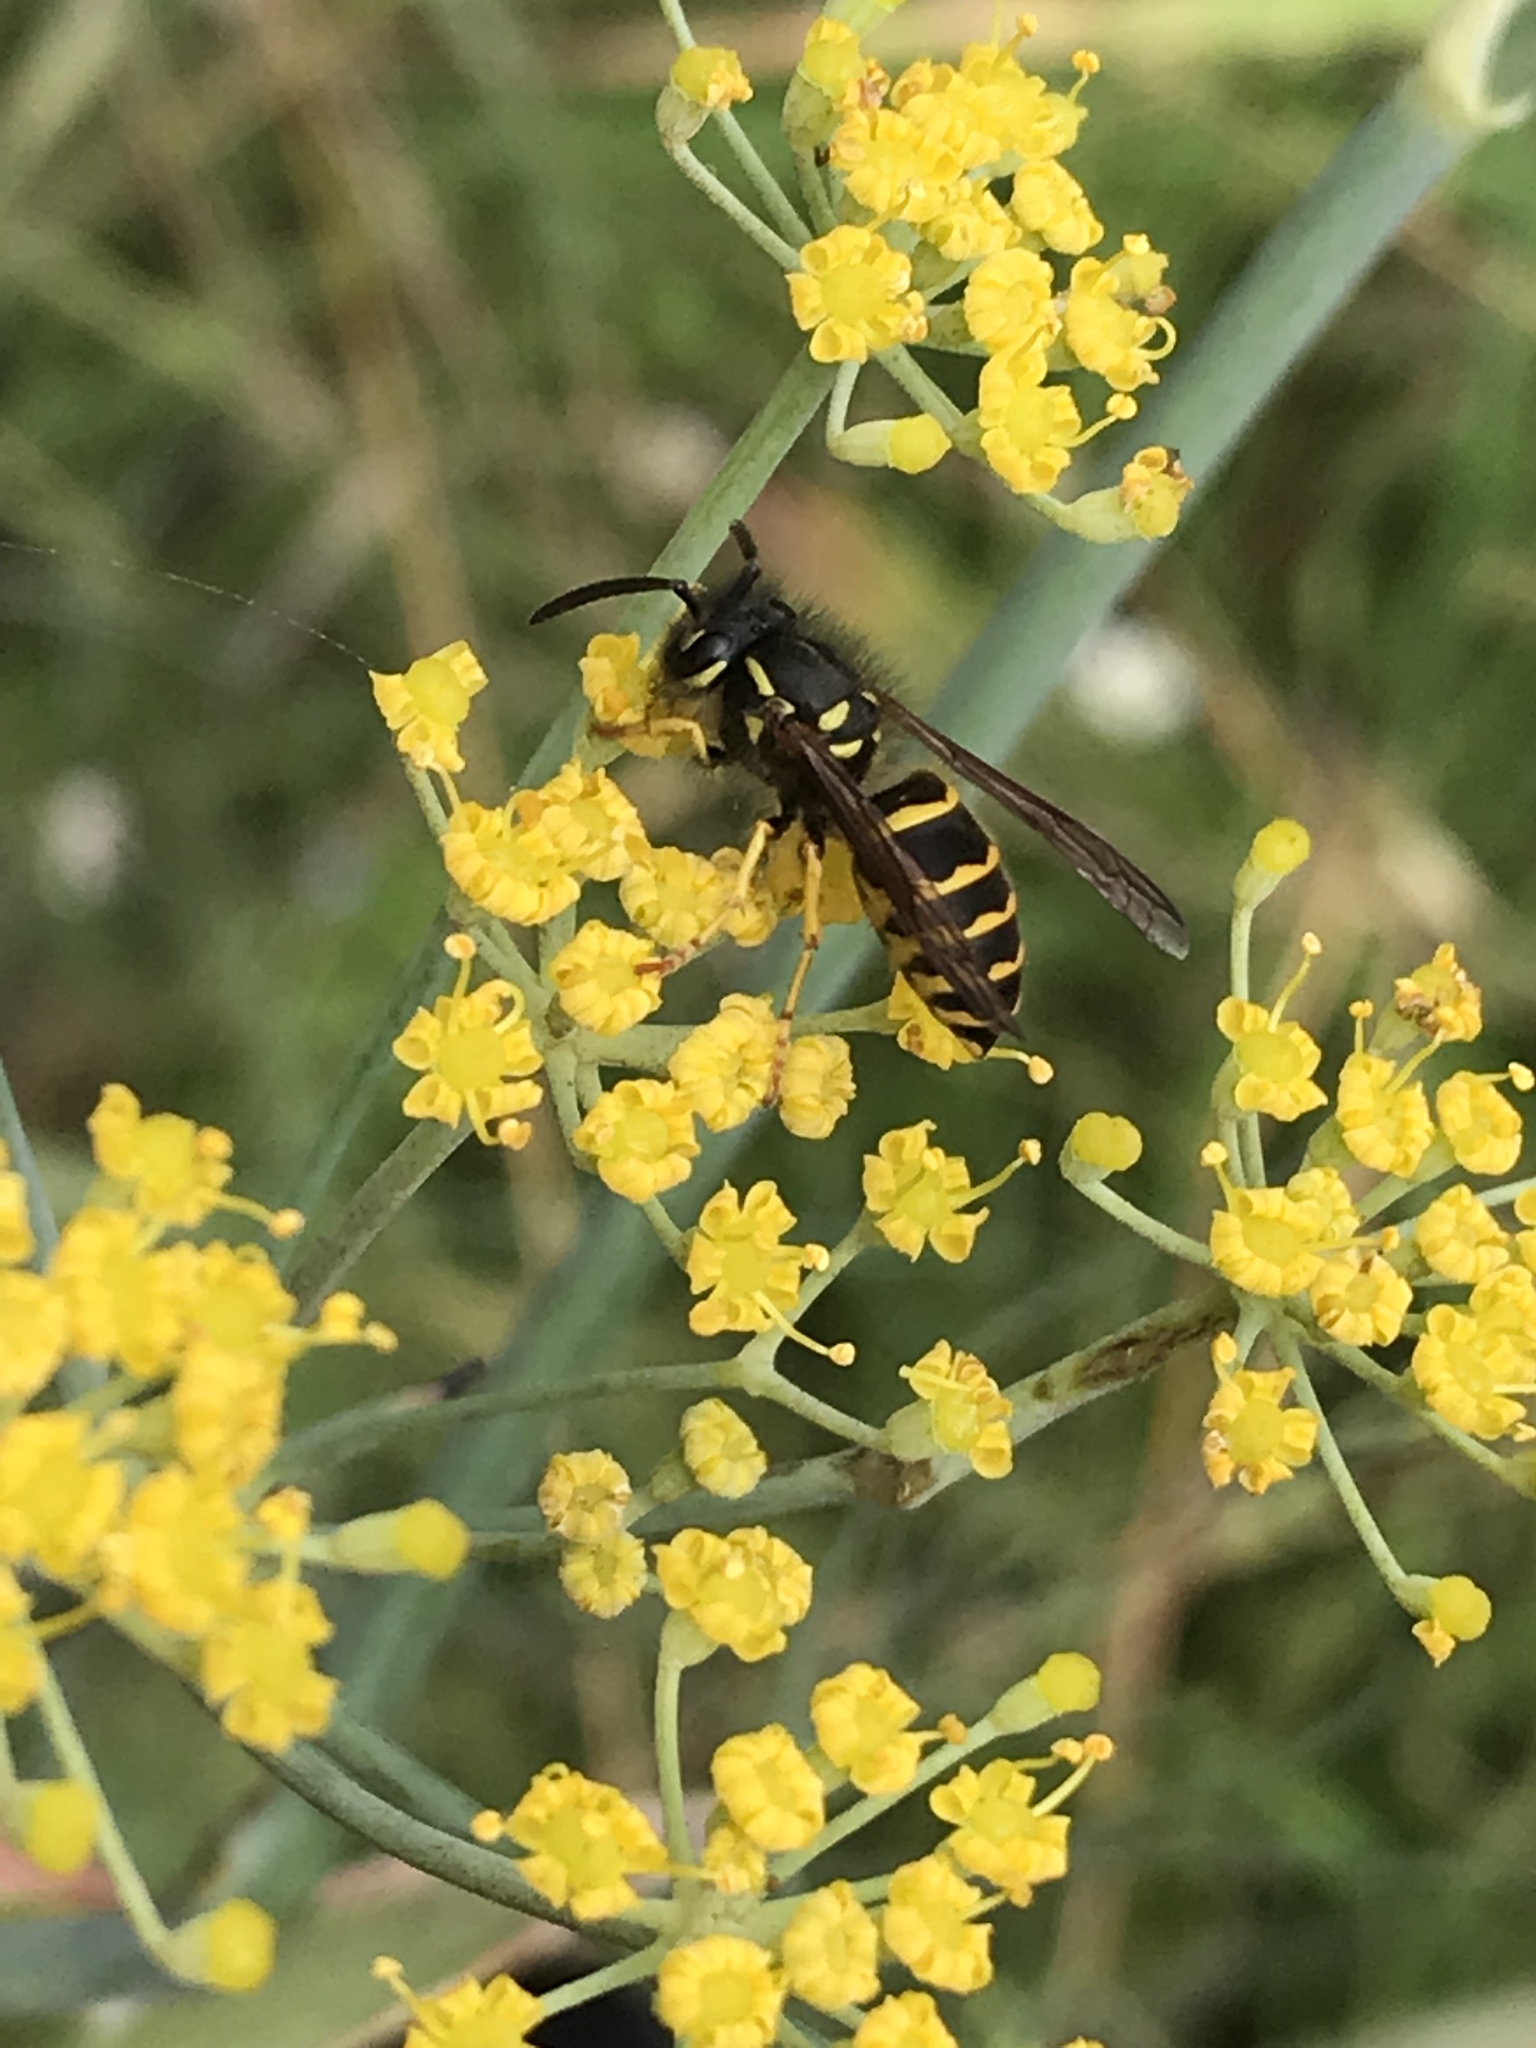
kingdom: Animalia
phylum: Arthropoda
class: Insecta
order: Hymenoptera
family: Vespidae
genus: Vespula
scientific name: Vespula alascensis
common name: Alaska yellowjacket
